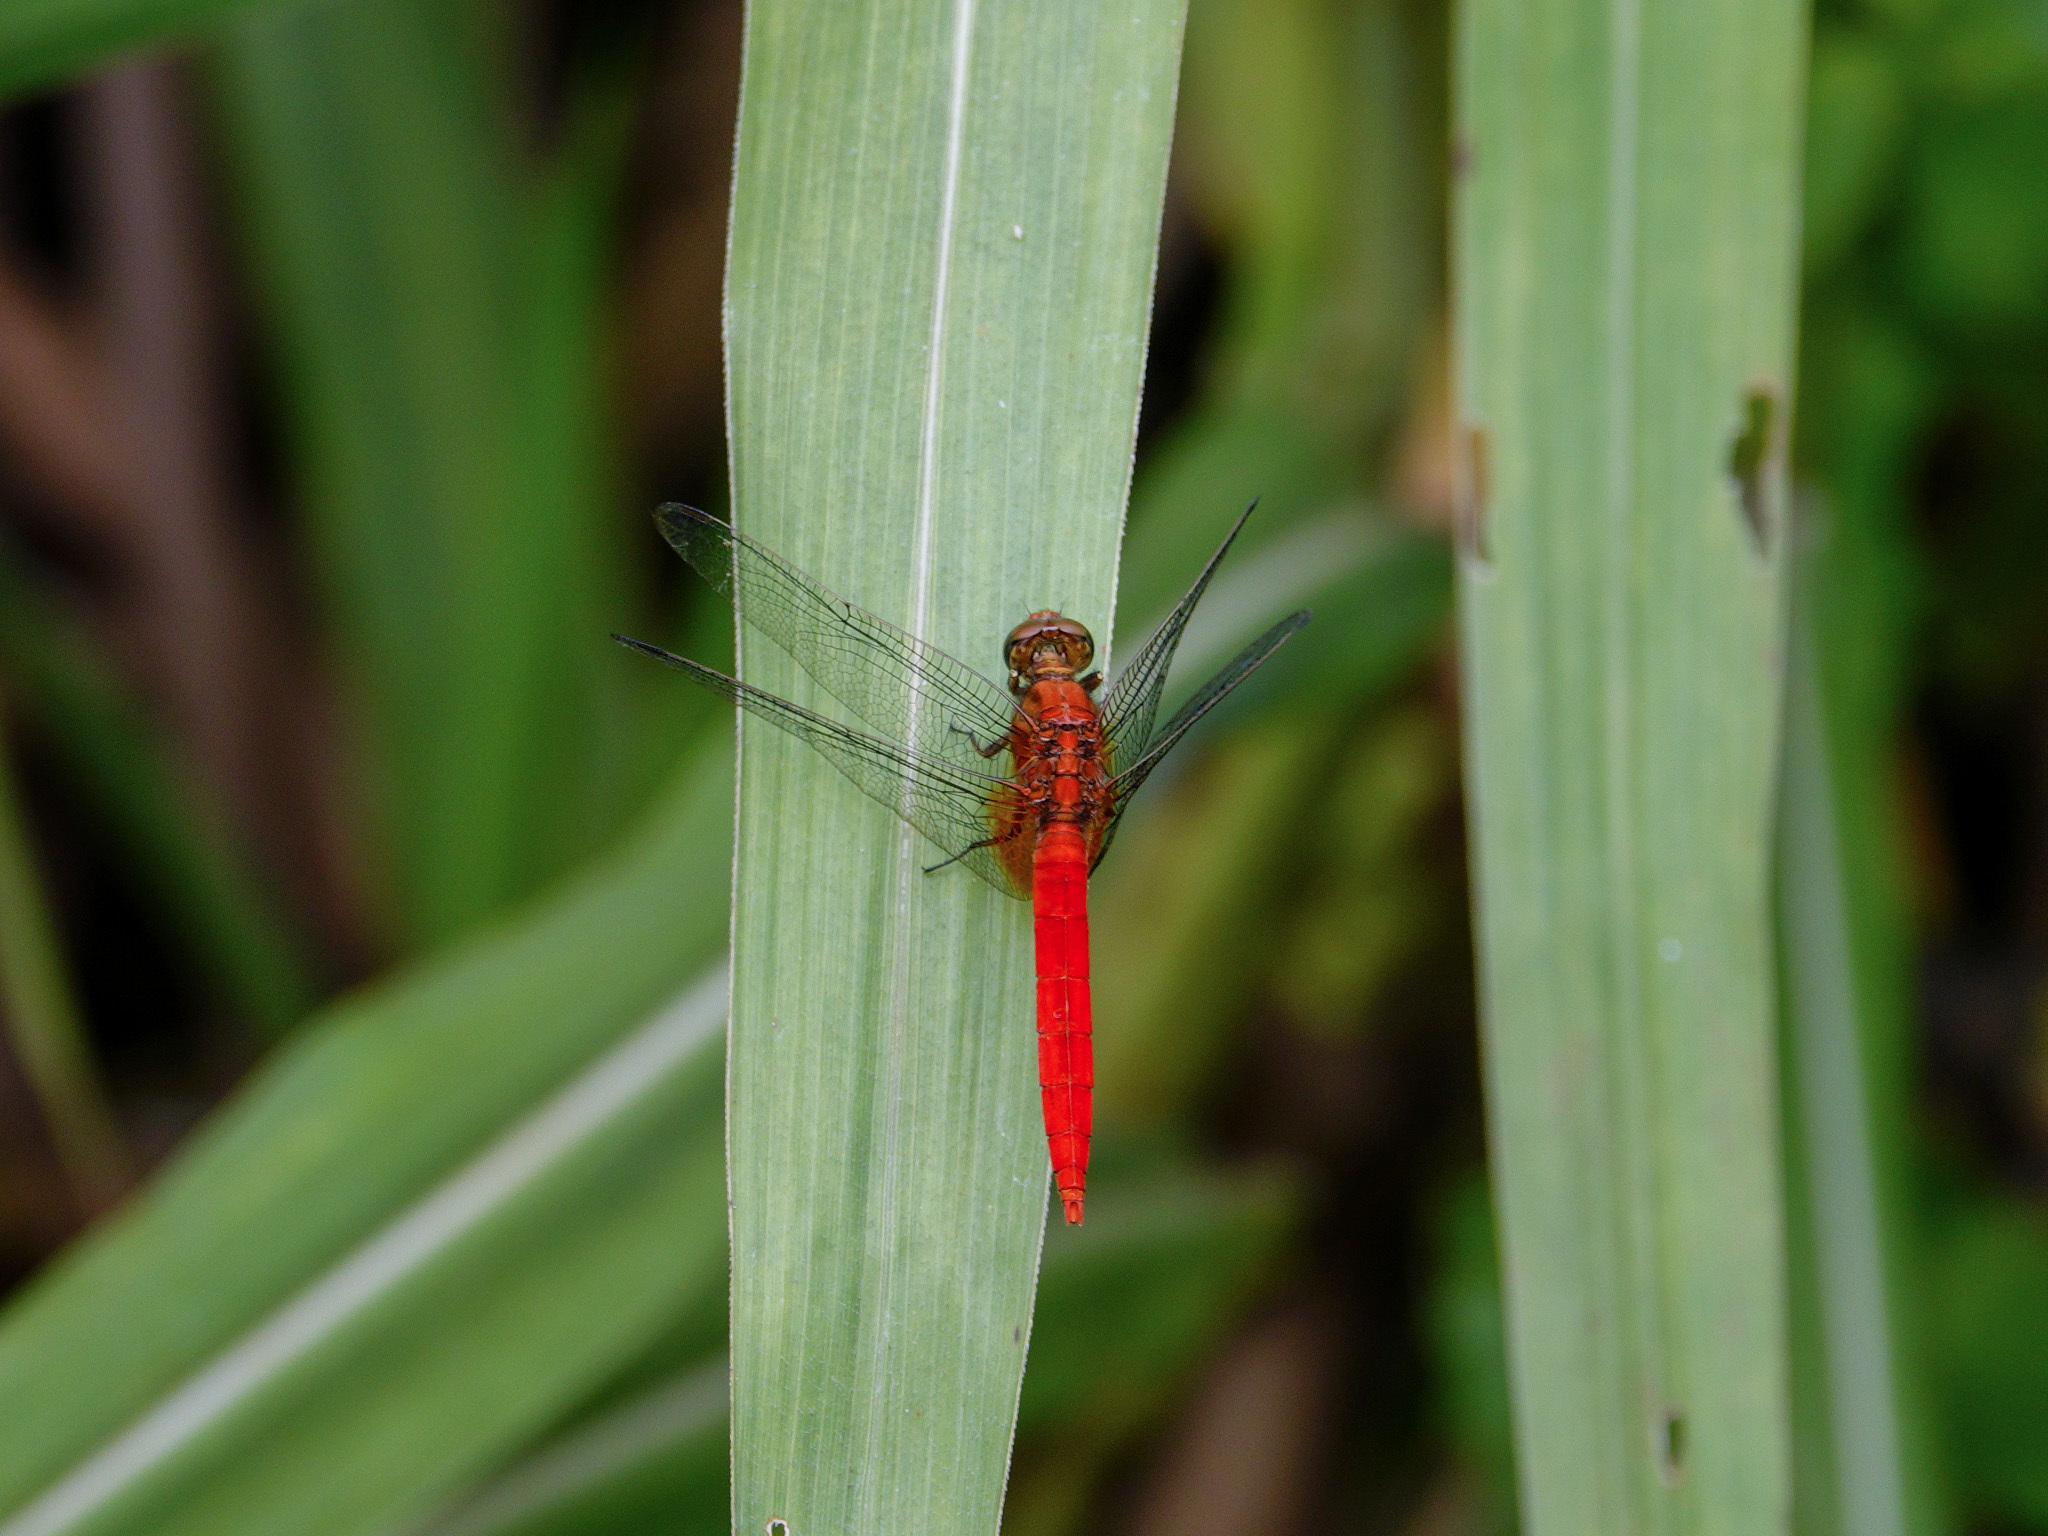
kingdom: Animalia
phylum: Arthropoda
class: Insecta
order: Odonata
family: Libellulidae
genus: Orthetrum
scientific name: Orthetrum testaceum
